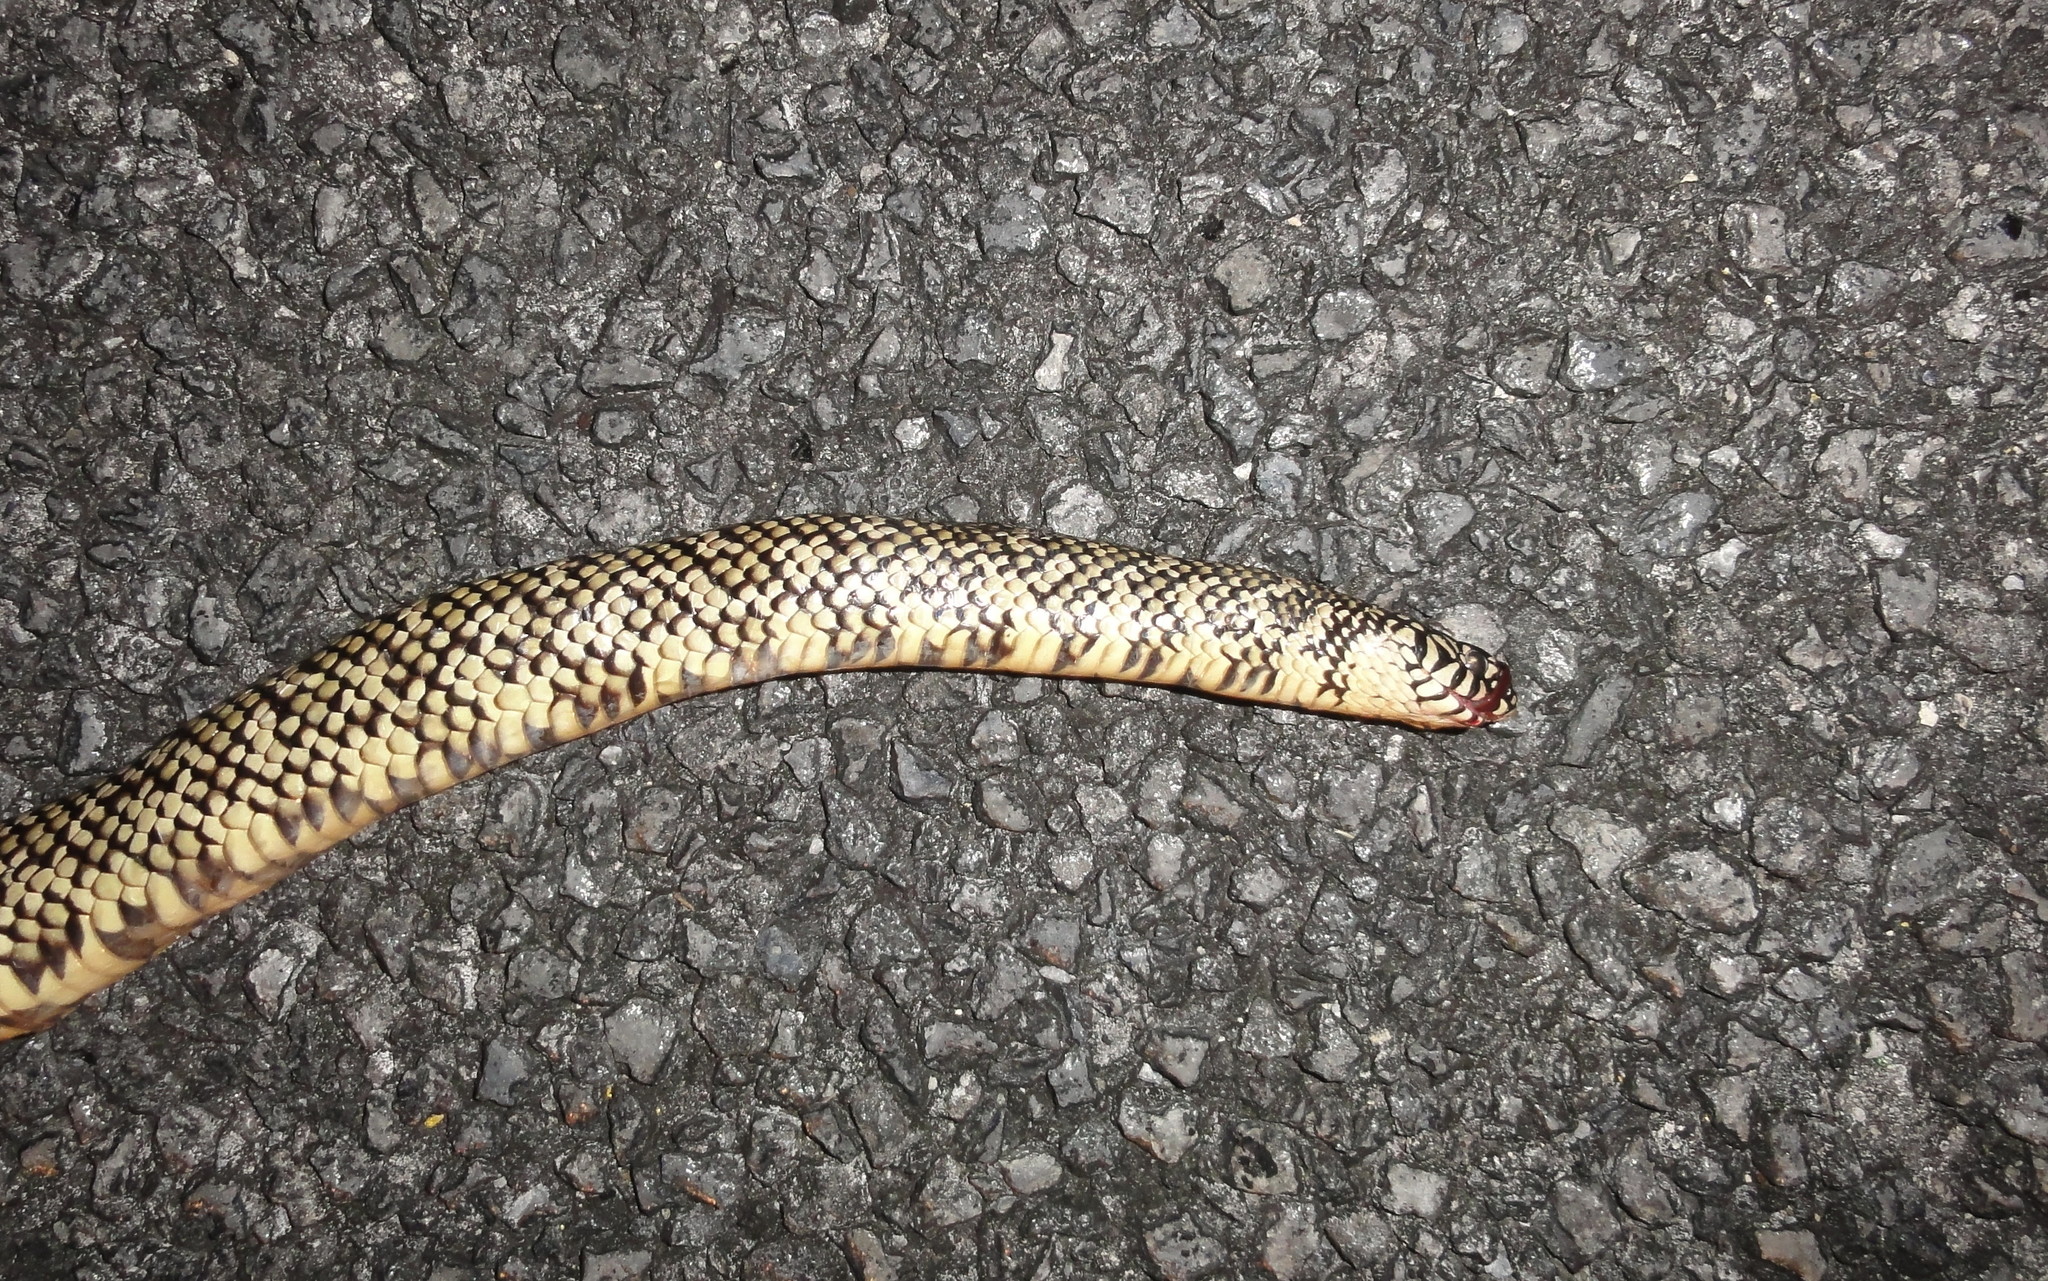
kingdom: Animalia
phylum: Chordata
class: Squamata
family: Colubridae
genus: Lampropeltis
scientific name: Lampropeltis getula
